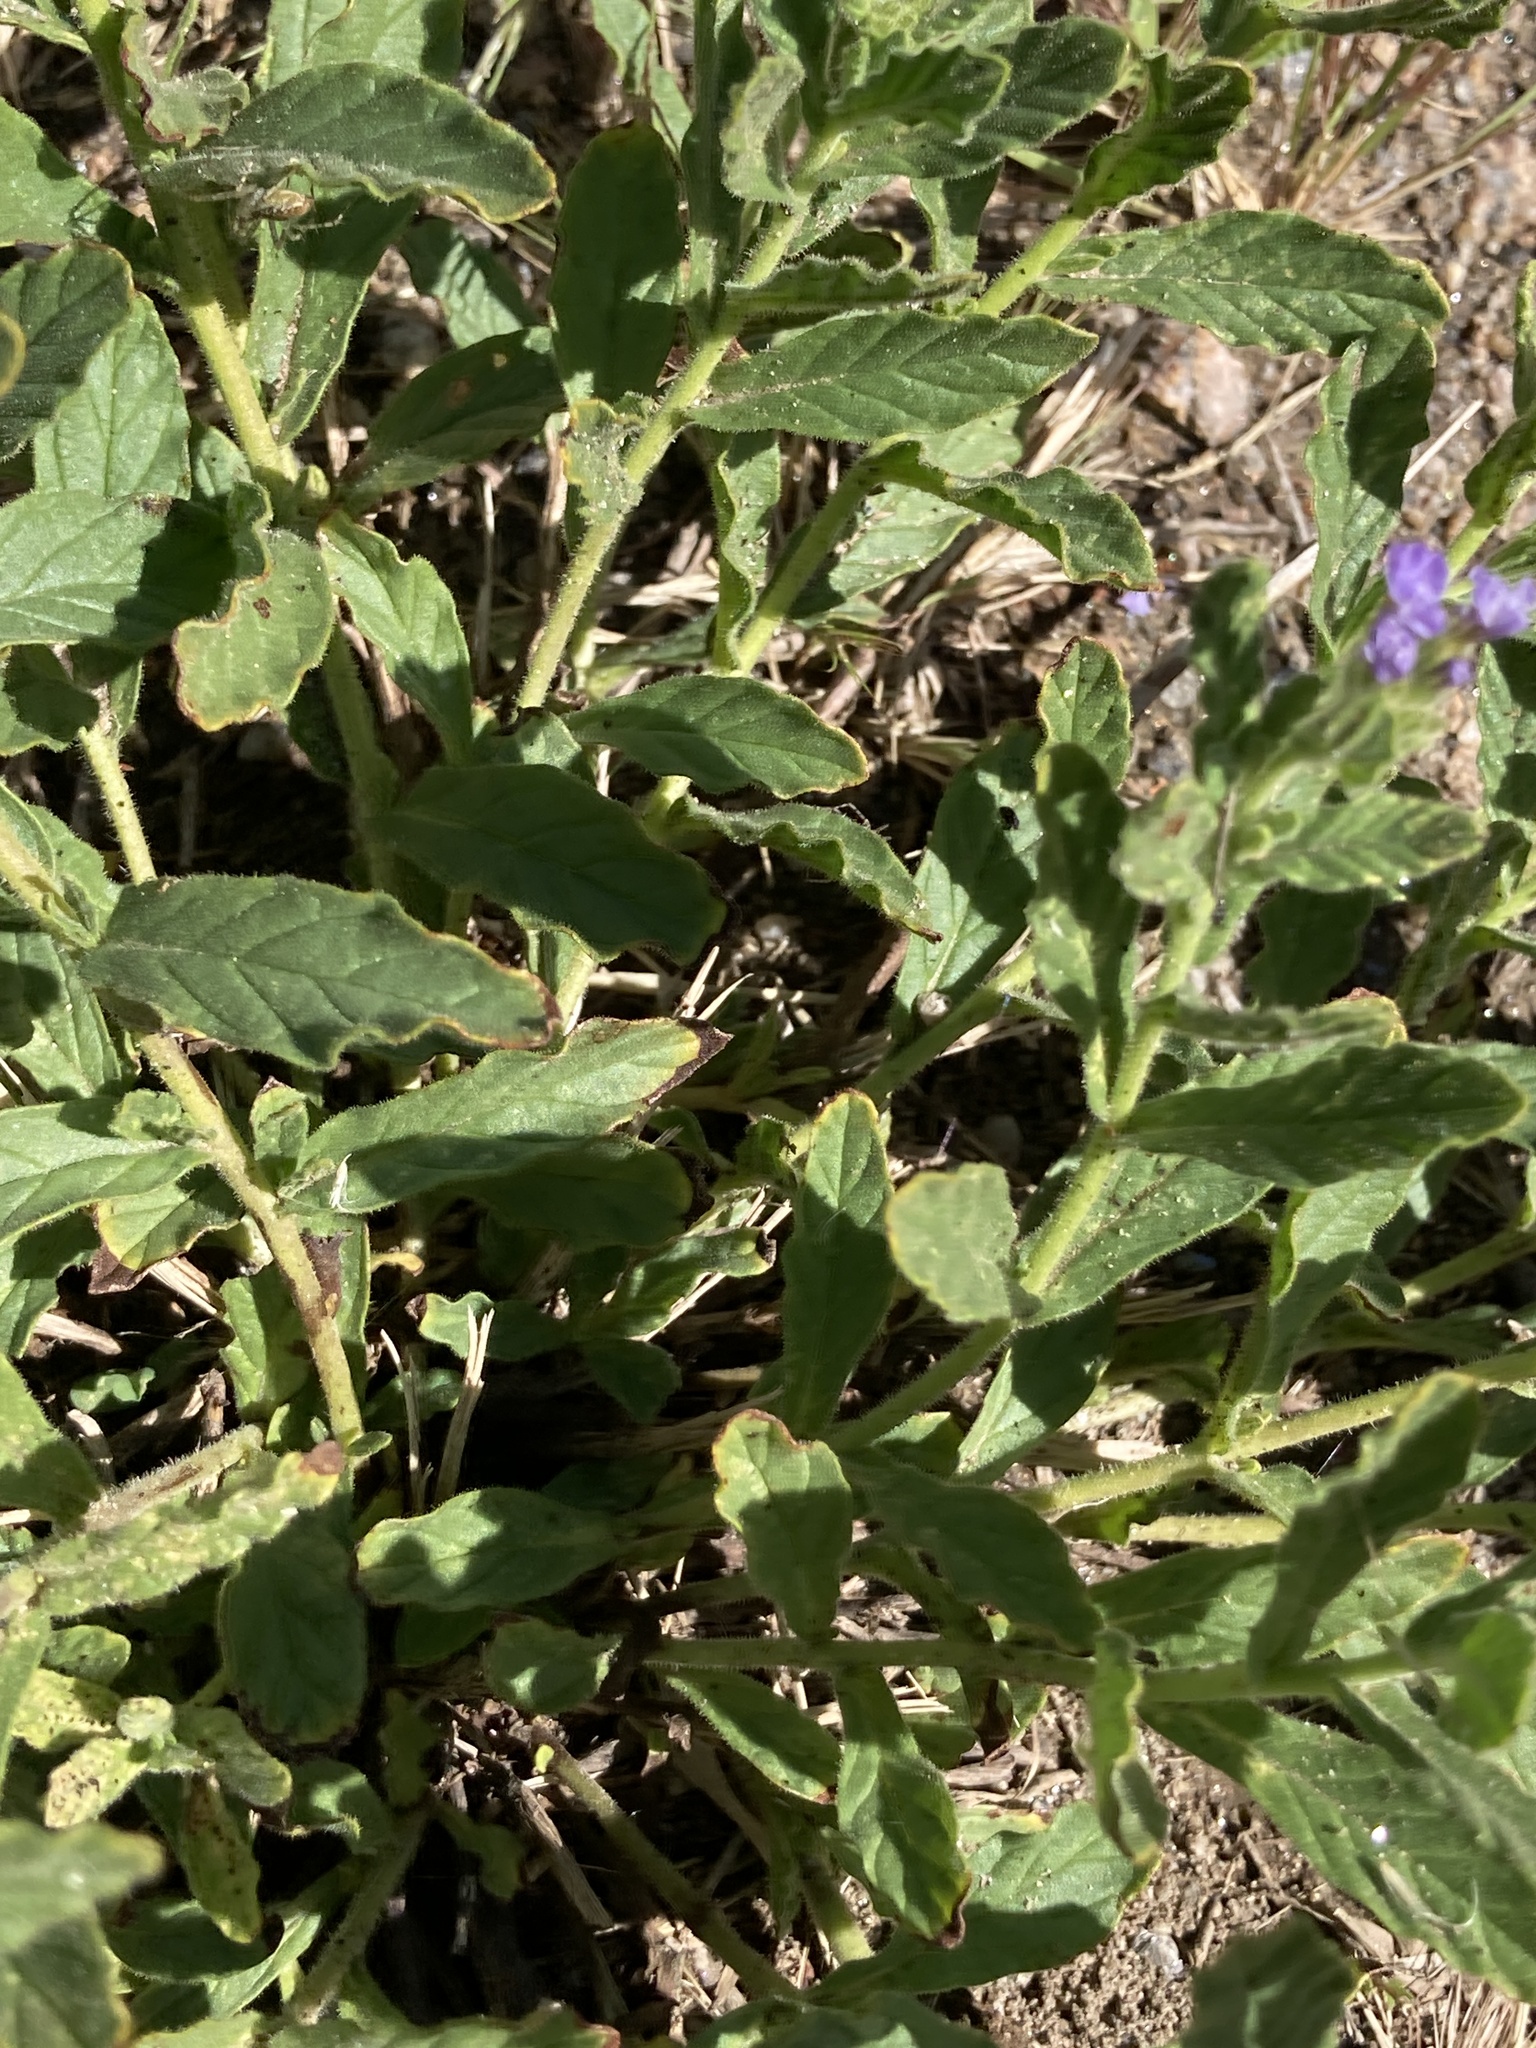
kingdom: Plantae
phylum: Tracheophyta
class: Magnoliopsida
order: Boraginales
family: Heliotropiaceae
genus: Heliotropium
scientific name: Heliotropium amplexicaule
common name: Clasping heliotrope
